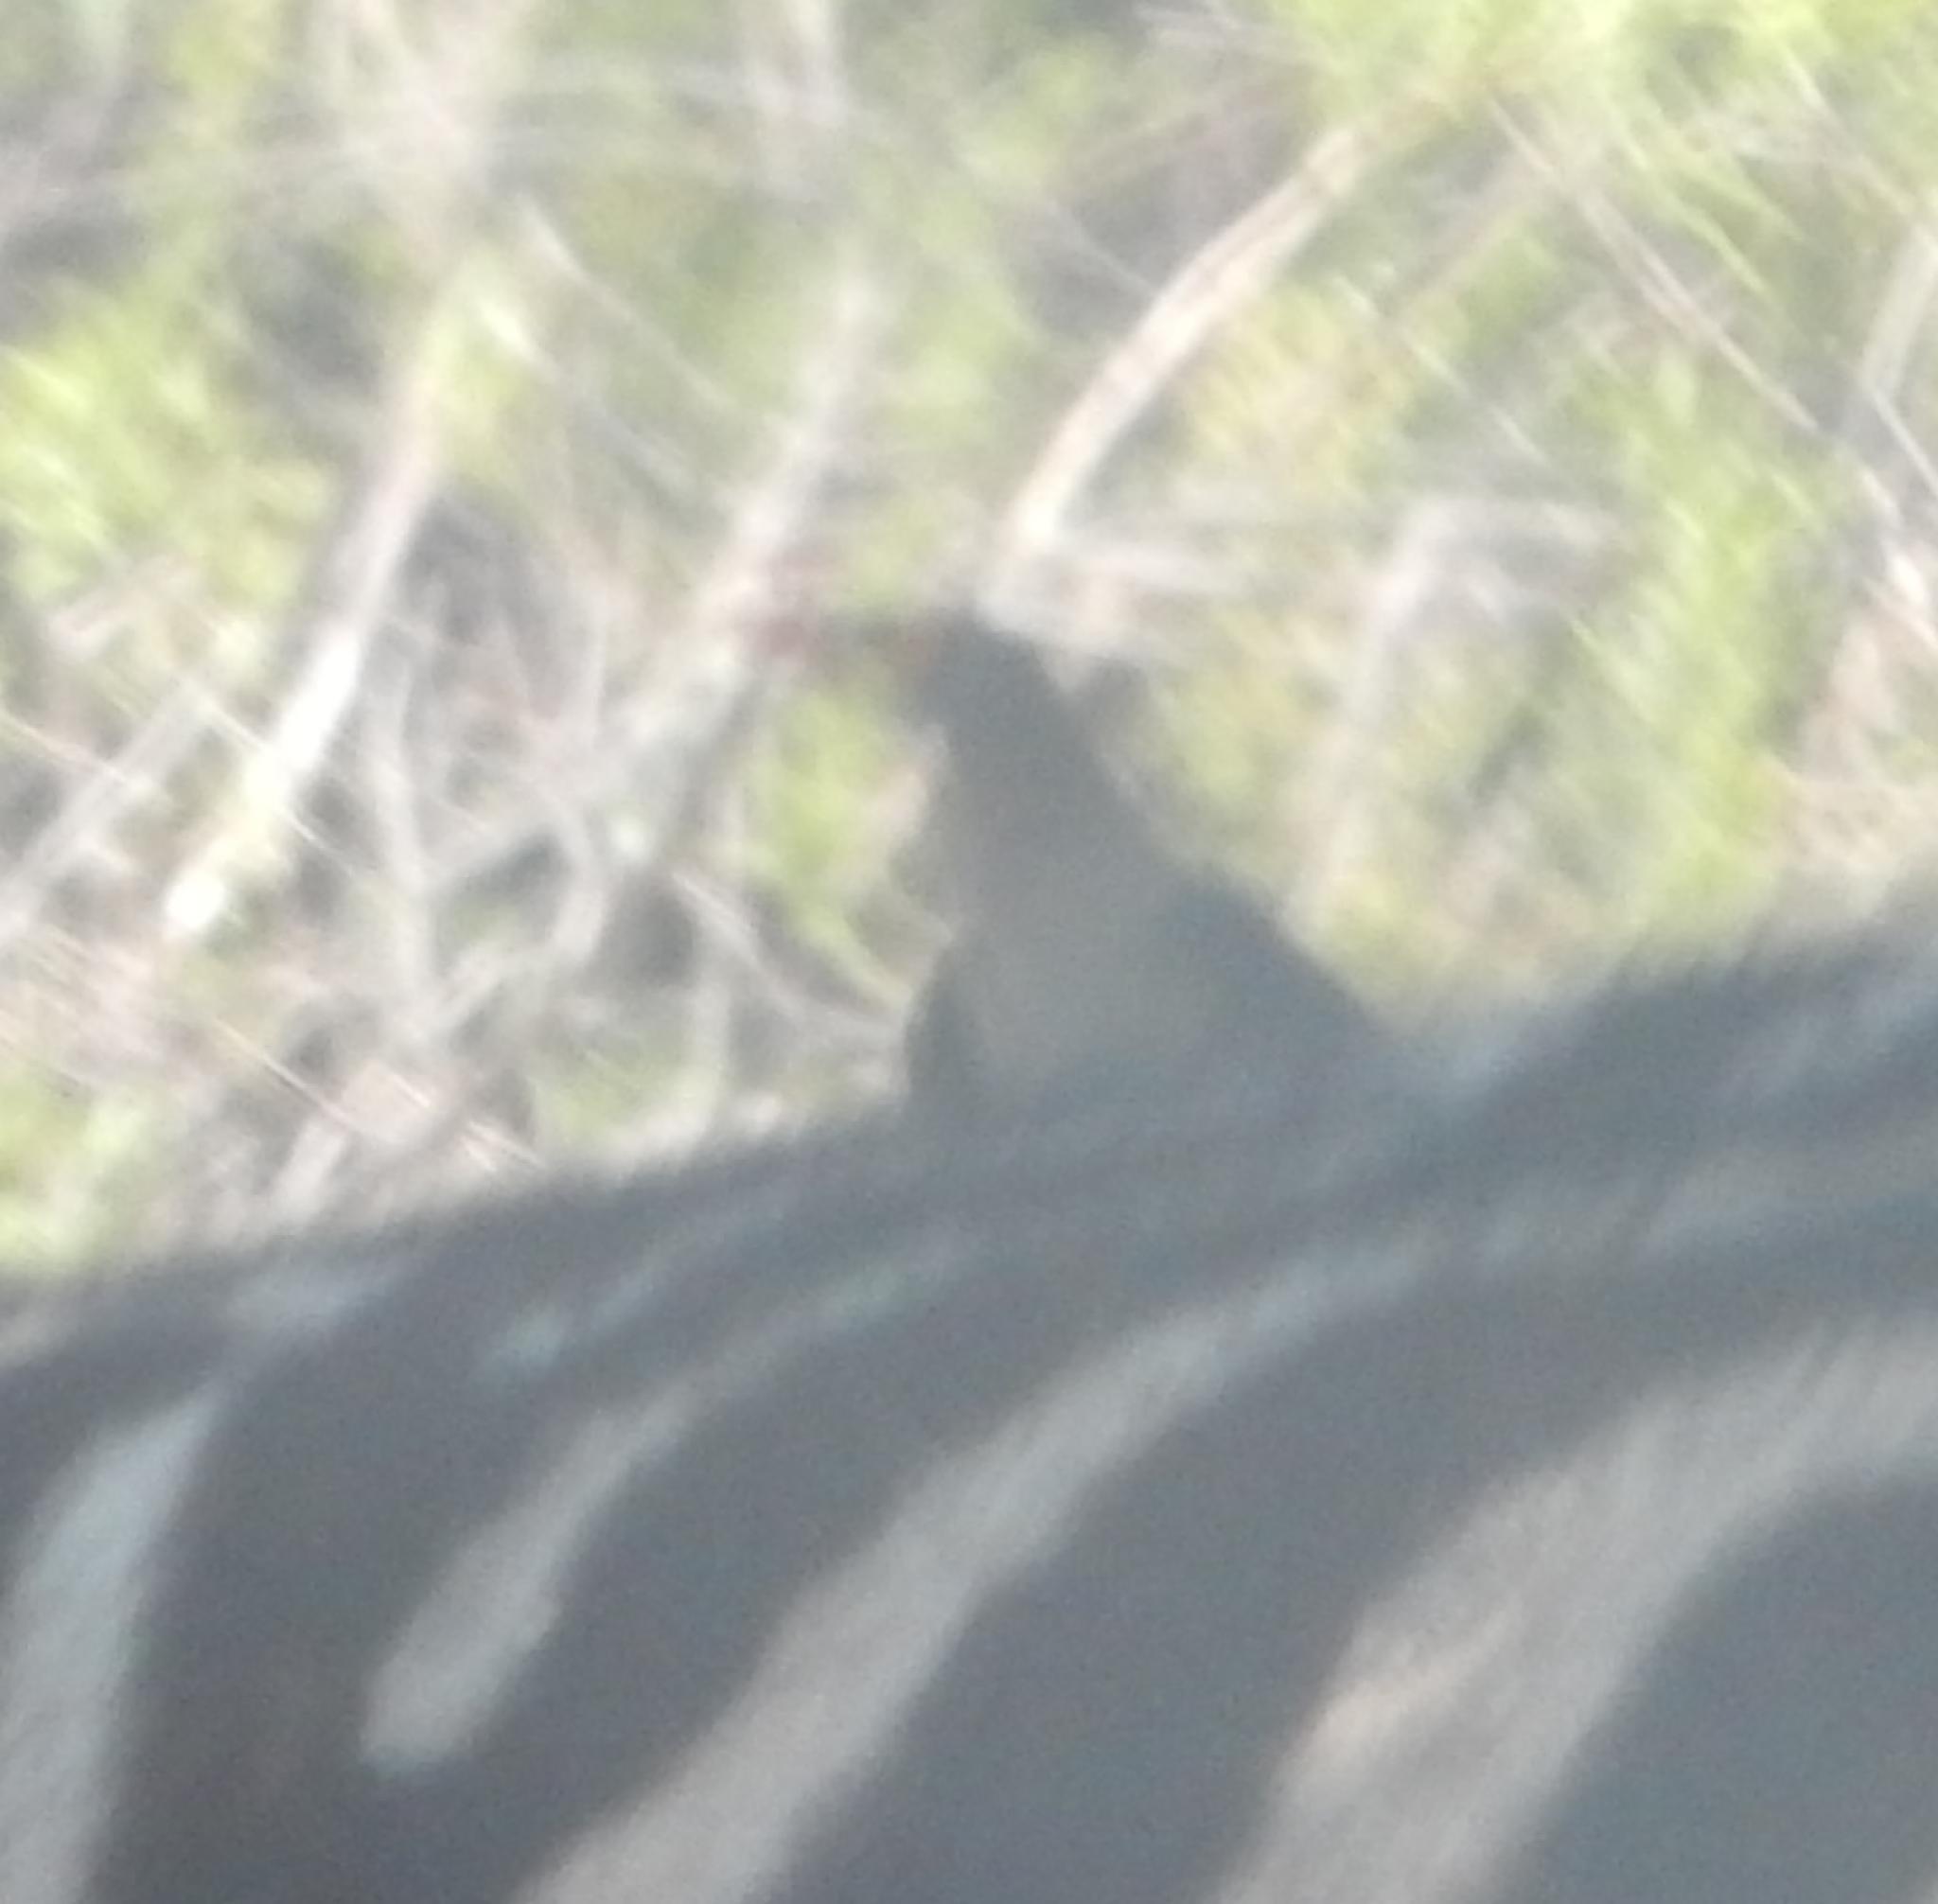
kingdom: Animalia
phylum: Chordata
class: Aves
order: Passeriformes
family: Buphagidae
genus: Buphagus
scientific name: Buphagus erythrorhynchus
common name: Red-billed oxpecker
